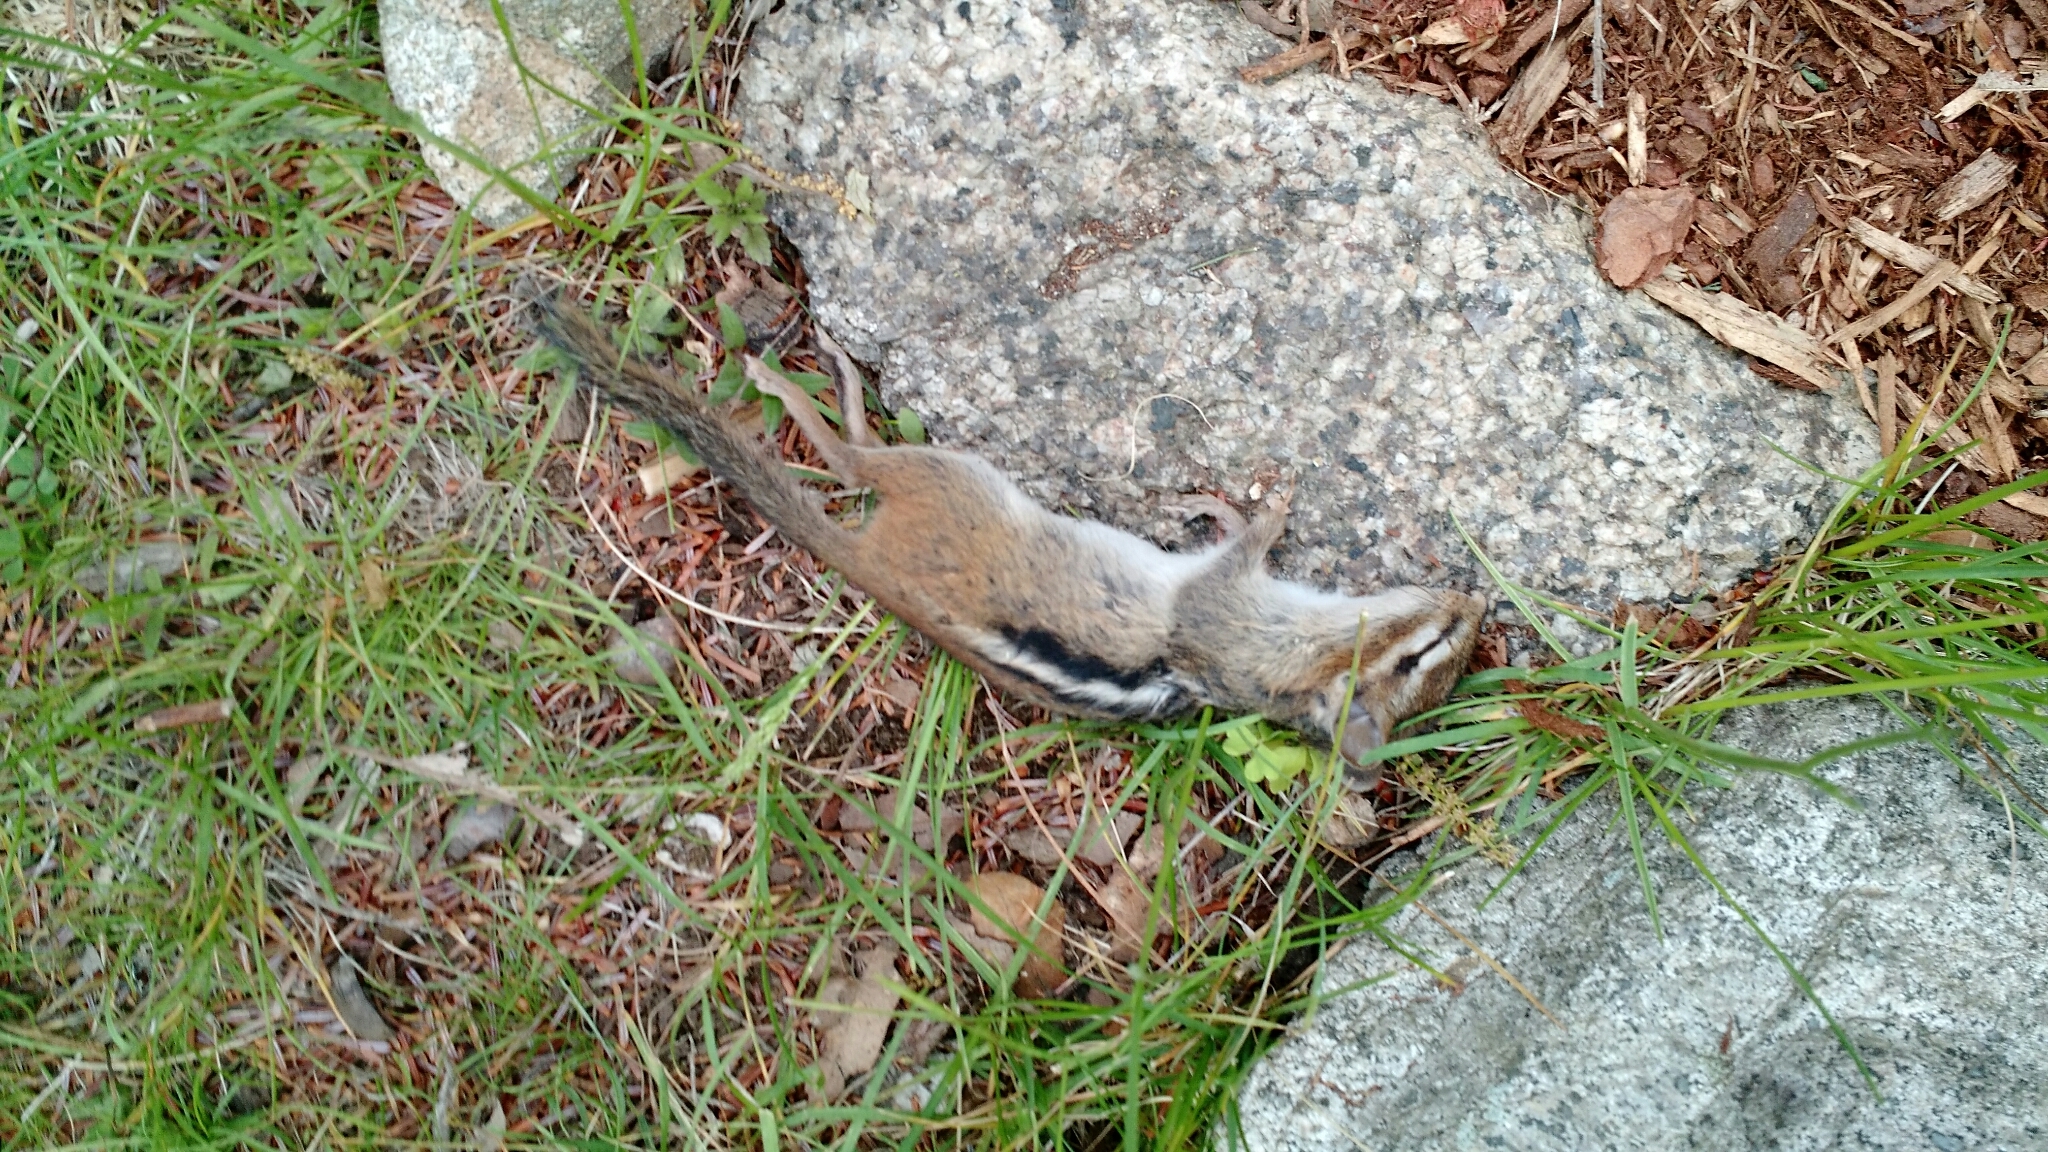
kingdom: Animalia
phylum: Chordata
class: Mammalia
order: Rodentia
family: Sciuridae
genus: Tamias
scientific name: Tamias striatus
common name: Eastern chipmunk
